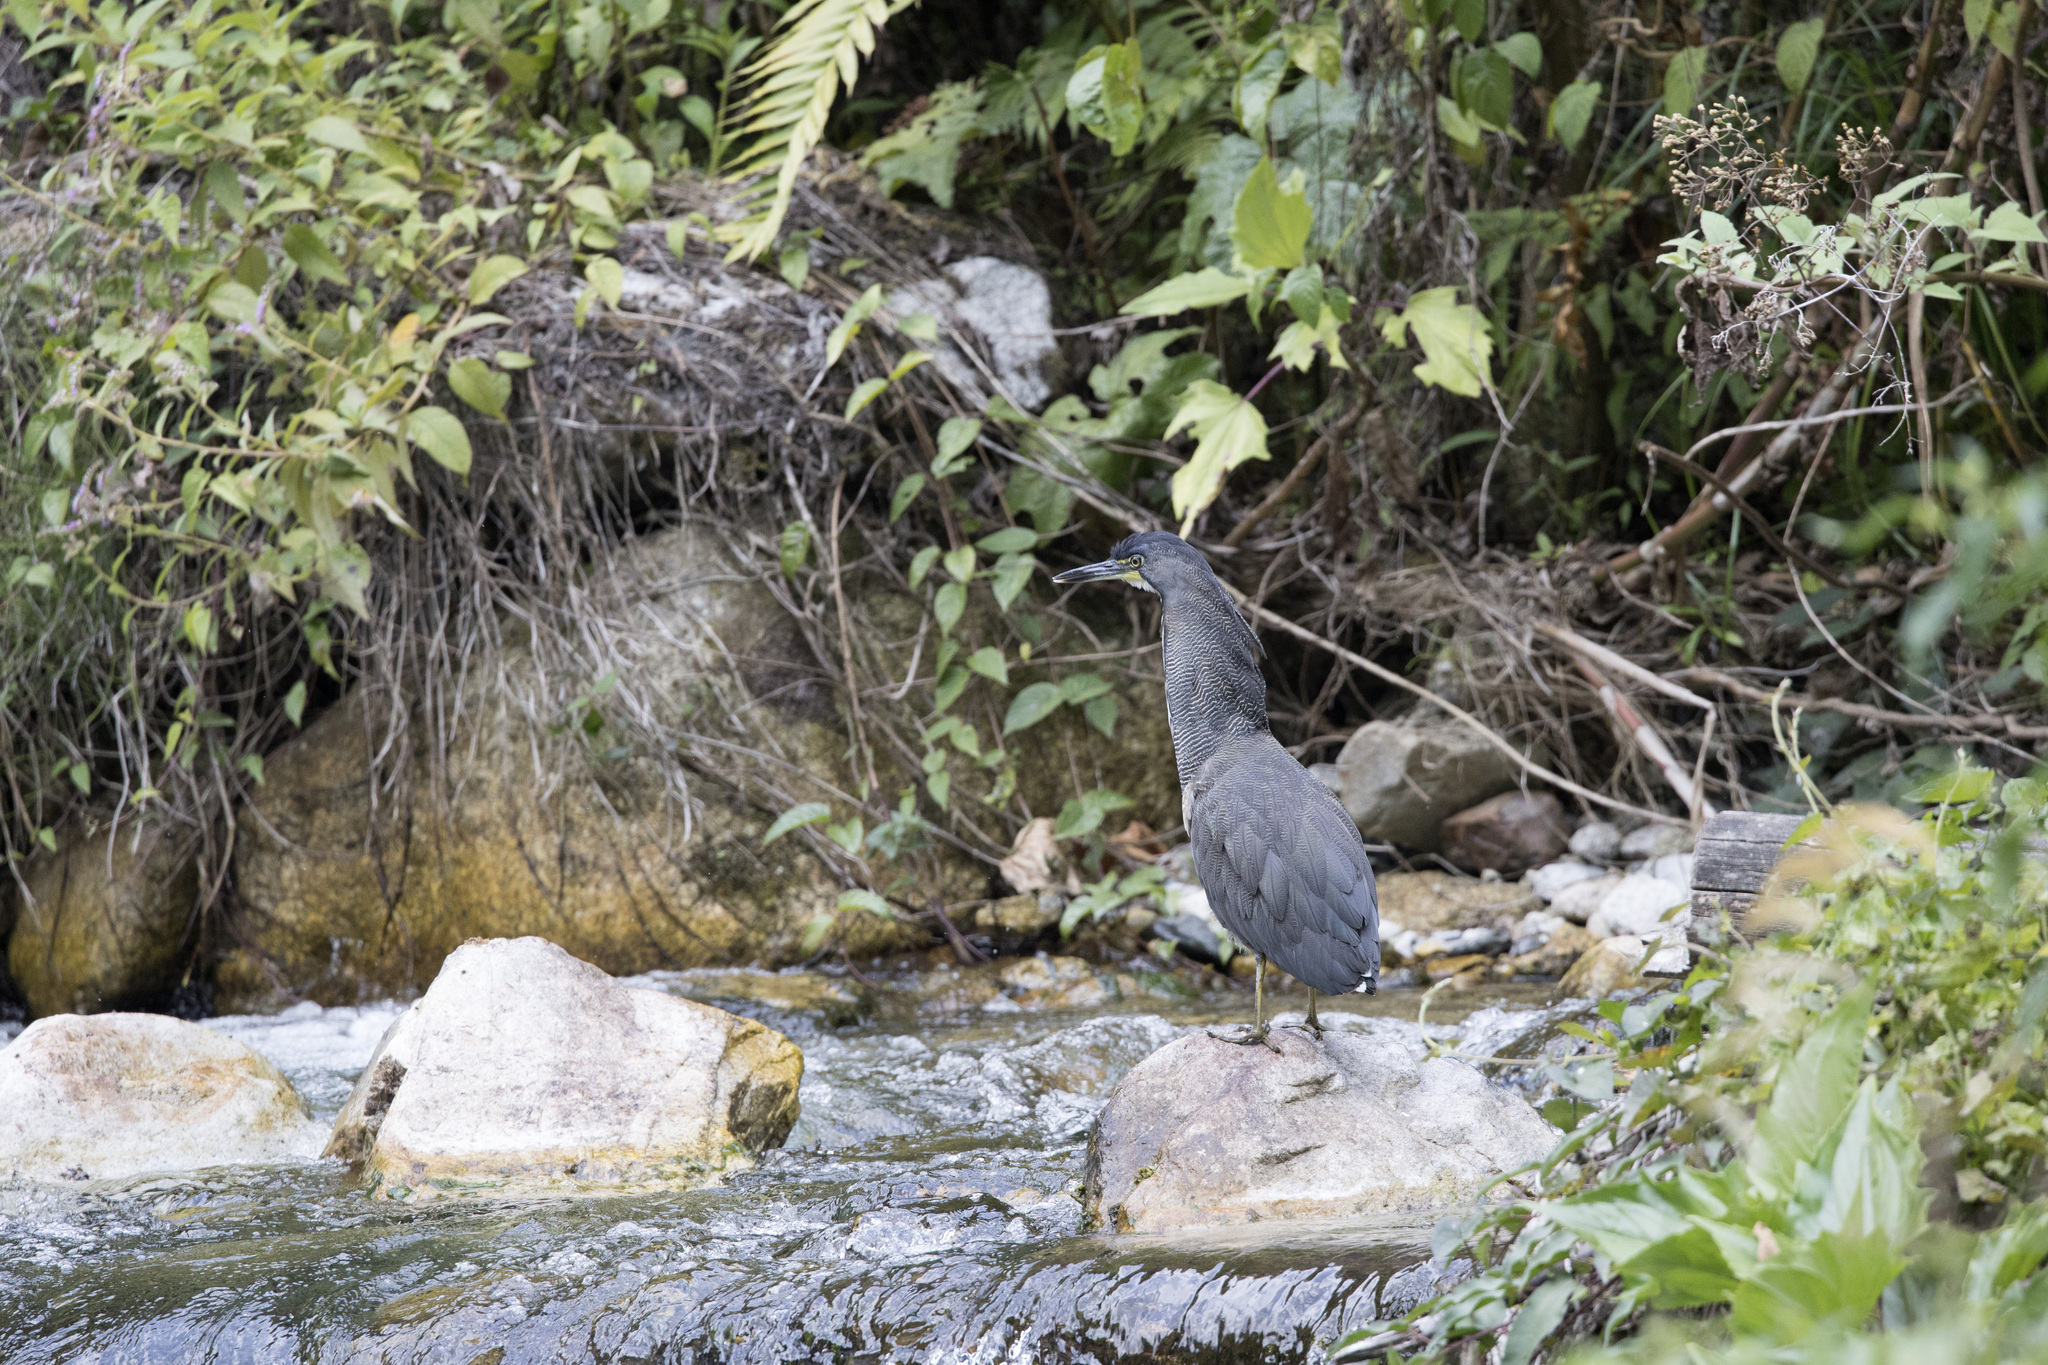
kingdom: Animalia
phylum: Chordata
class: Aves
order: Pelecaniformes
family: Ardeidae
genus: Tigrisoma
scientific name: Tigrisoma fasciatum
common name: Fasciated tiger-heron
